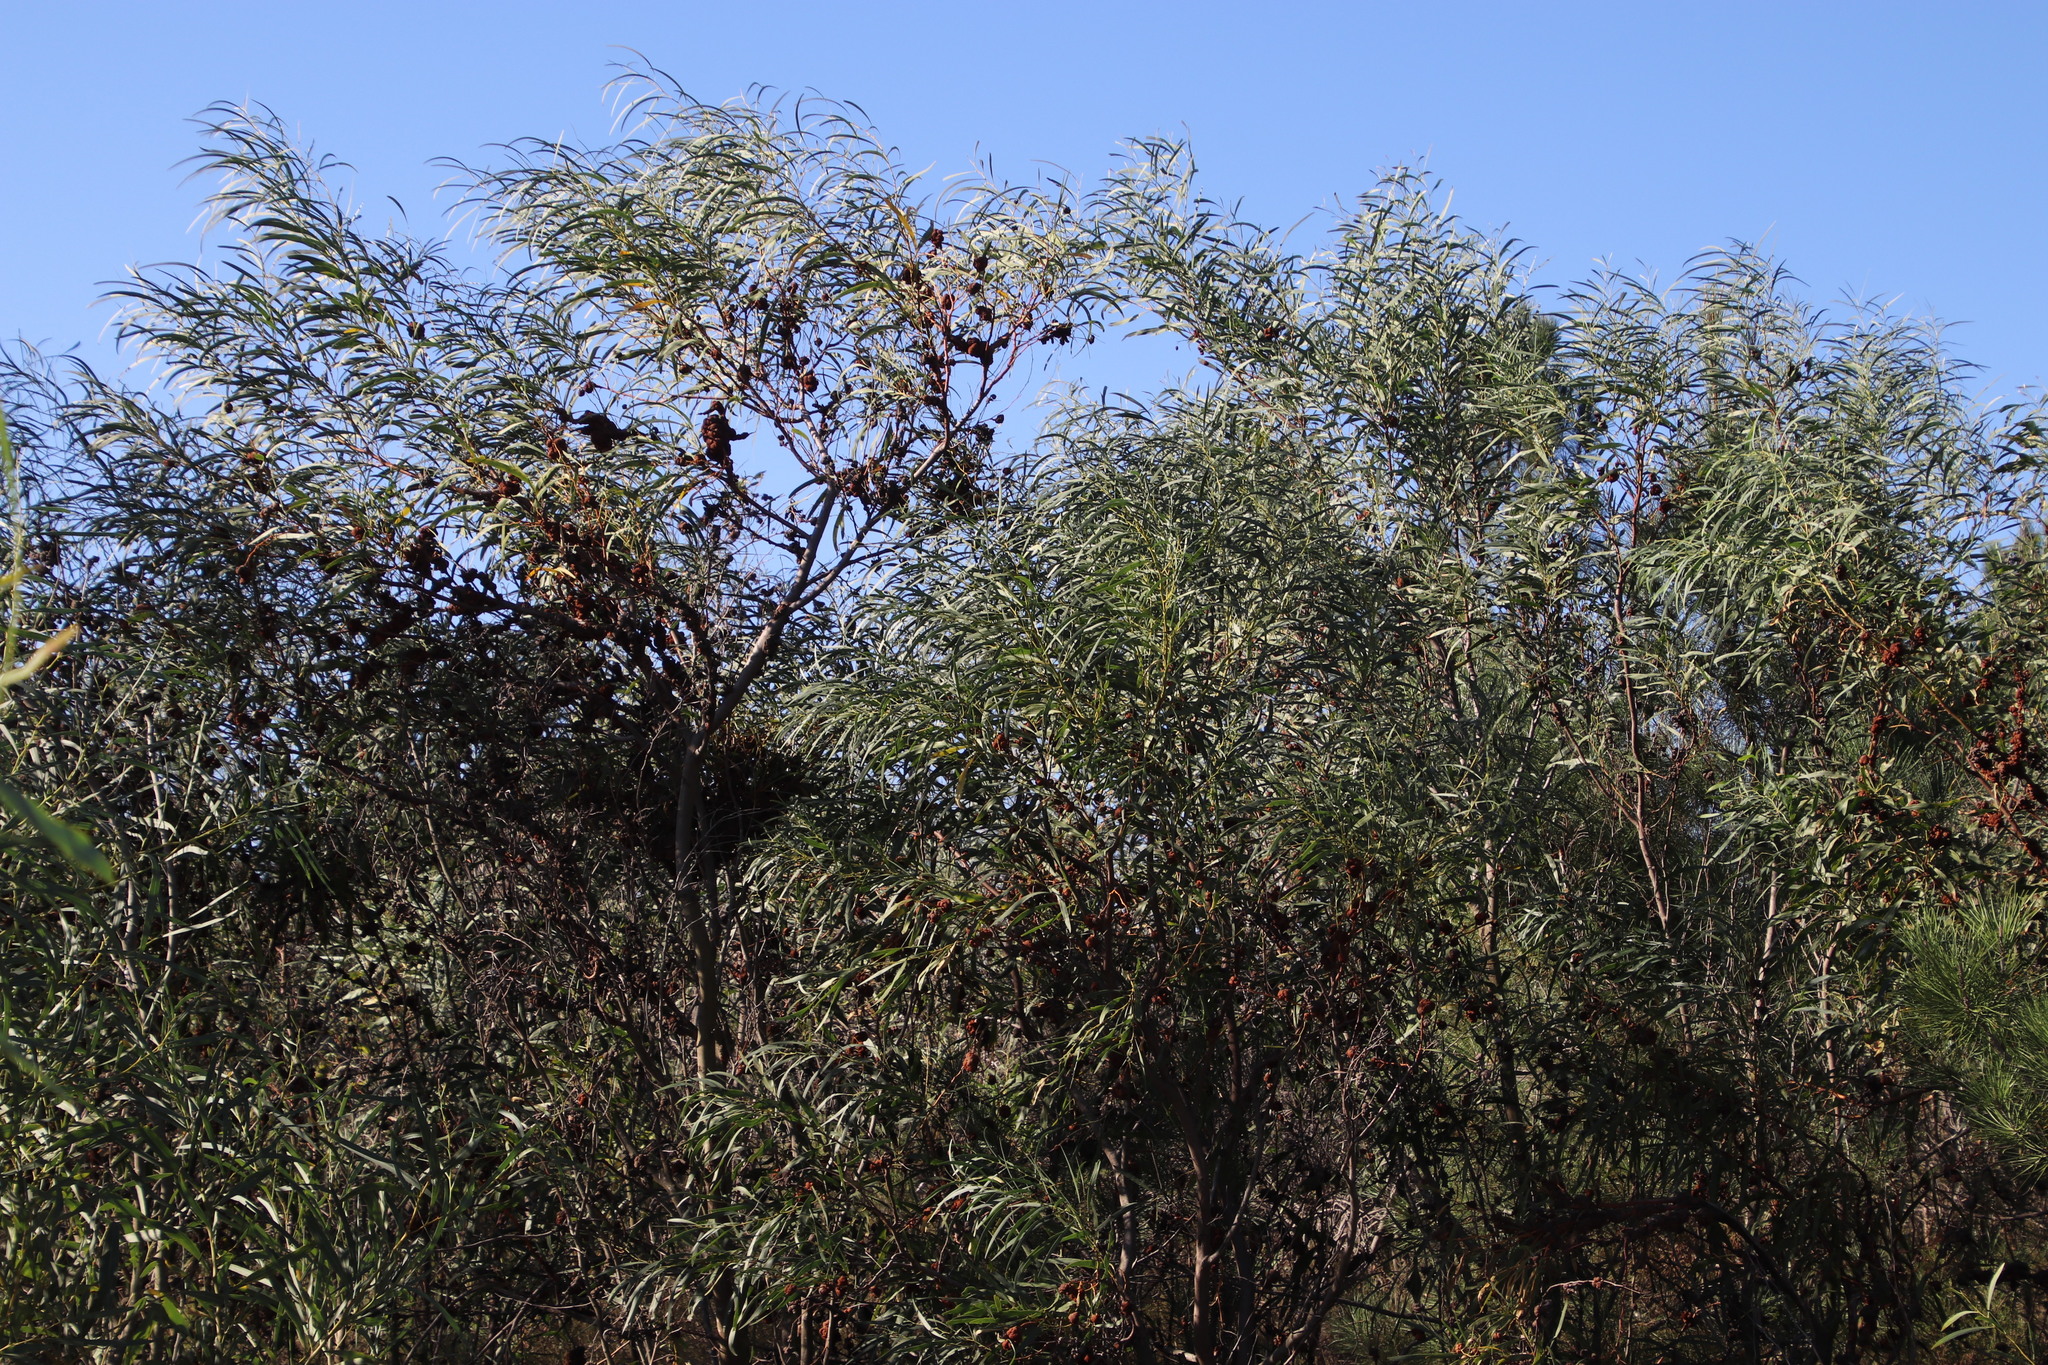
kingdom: Plantae
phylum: Tracheophyta
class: Magnoliopsida
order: Fabales
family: Fabaceae
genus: Acacia
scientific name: Acacia saligna
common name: Orange wattle
